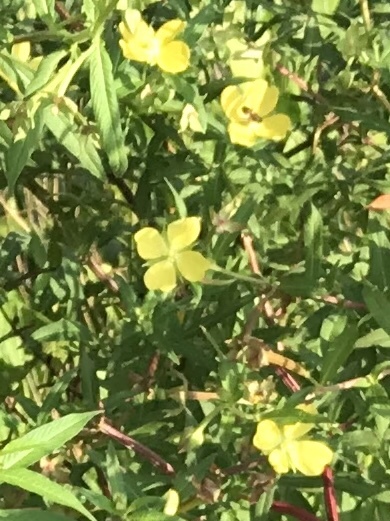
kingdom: Plantae
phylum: Tracheophyta
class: Magnoliopsida
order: Myrtales
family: Onagraceae
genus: Ludwigia
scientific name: Ludwigia octovalvis
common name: Water-primrose
